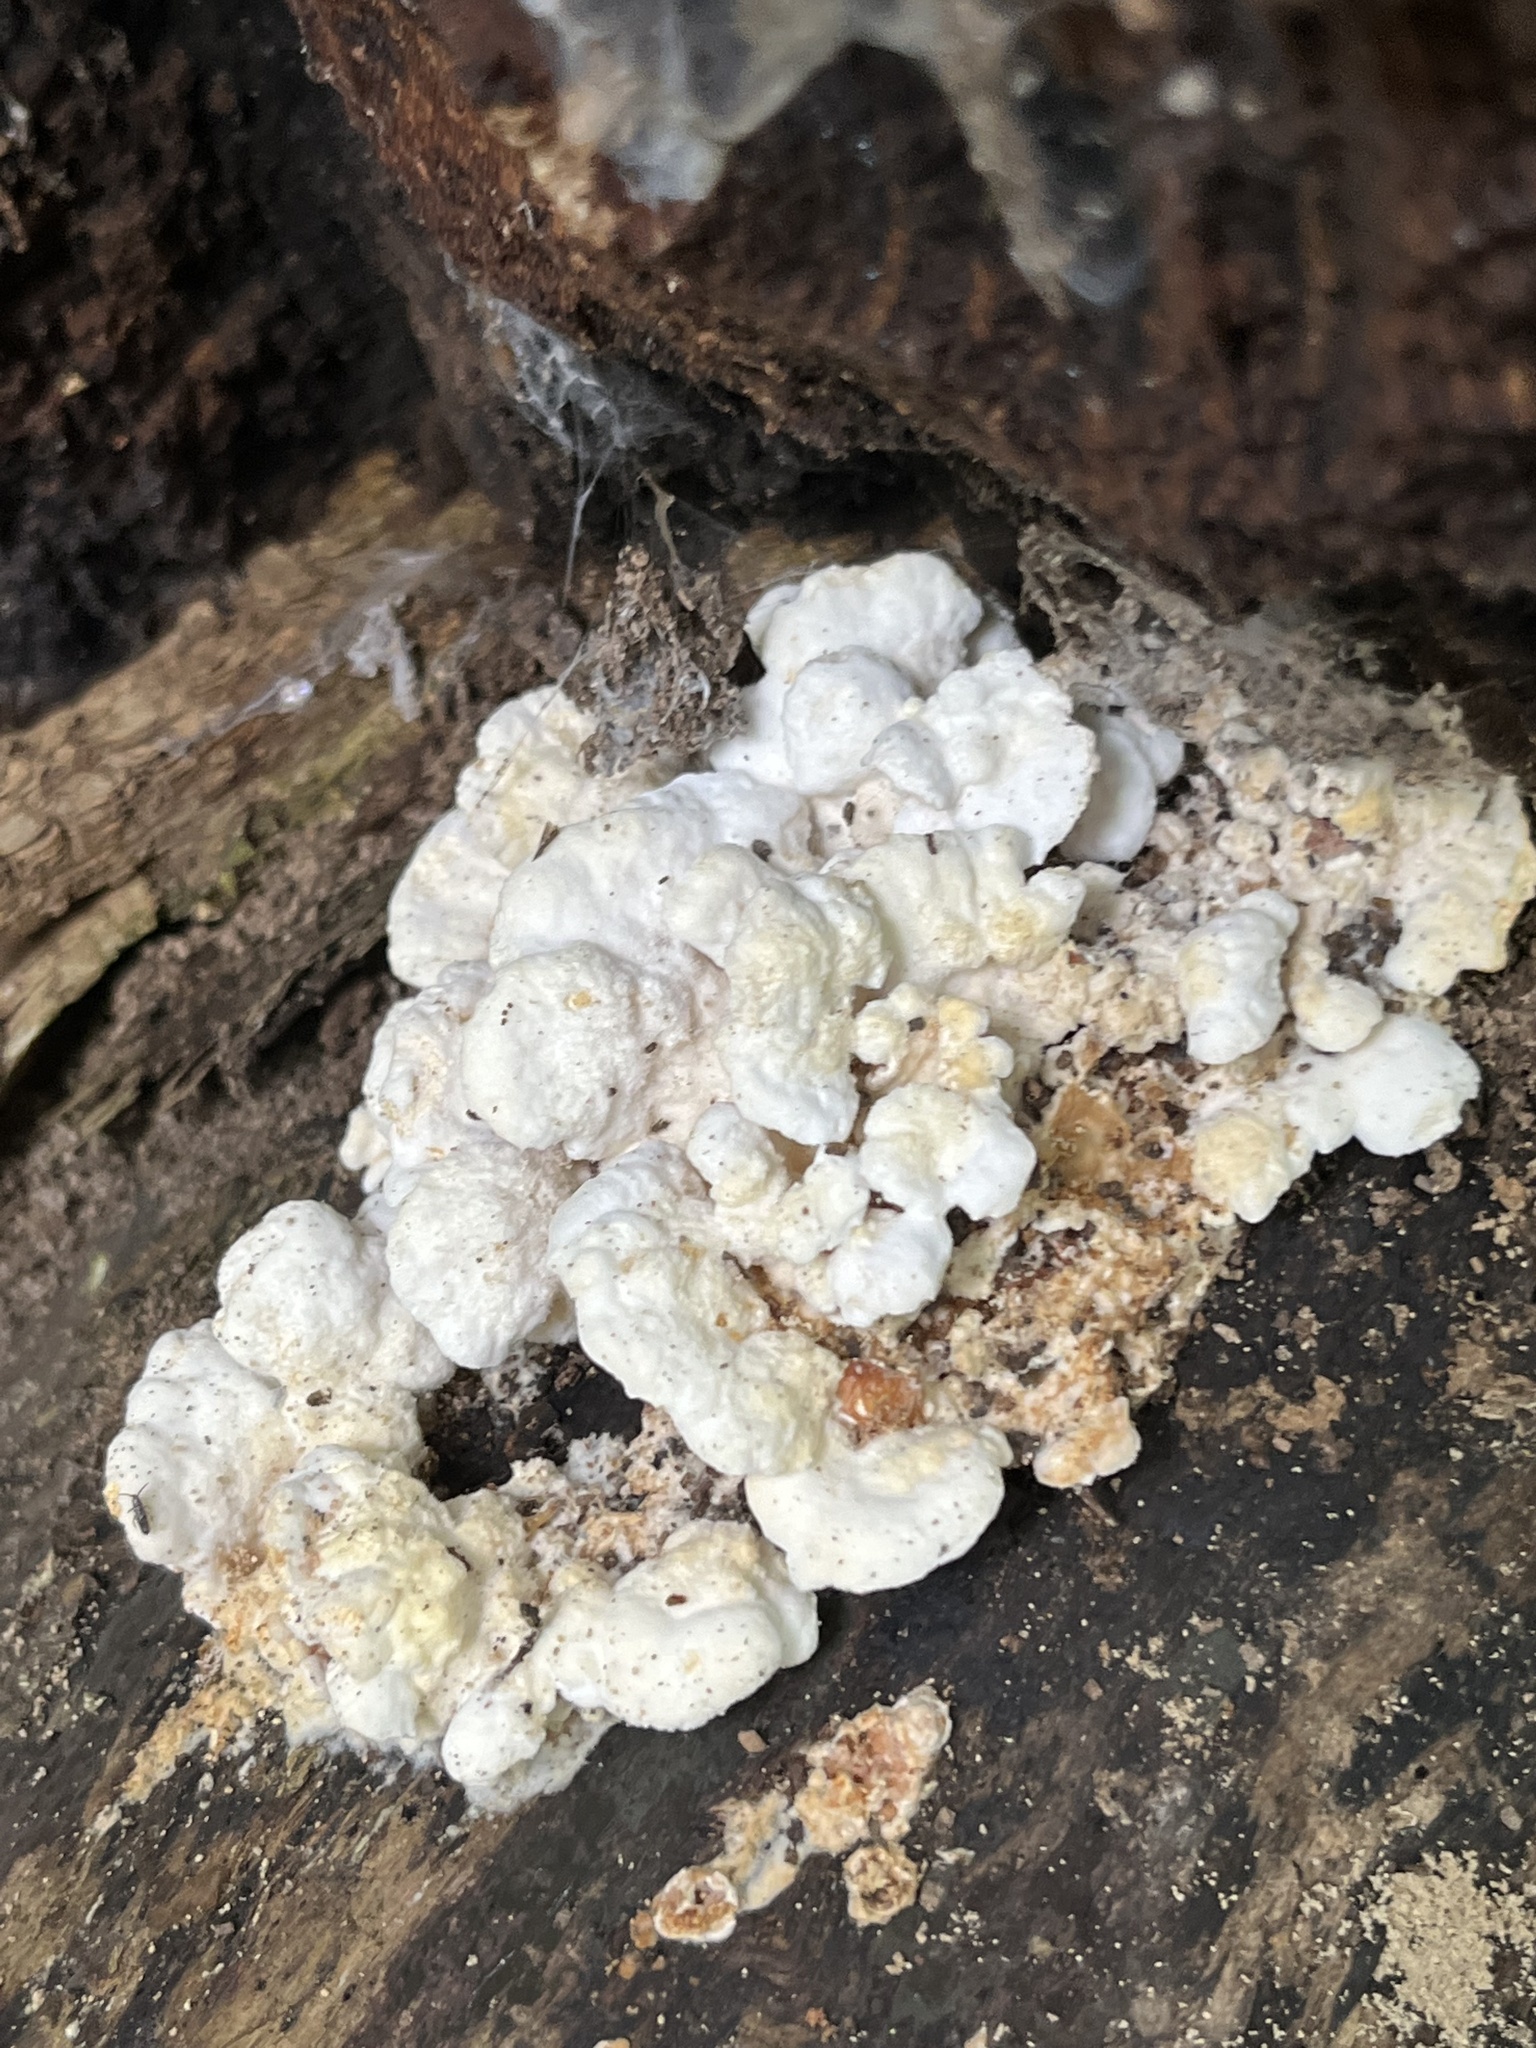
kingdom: Fungi
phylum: Basidiomycota
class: Agaricomycetes
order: Polyporales
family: Irpicaceae
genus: Vitreoporus
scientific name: Vitreoporus dichrous
